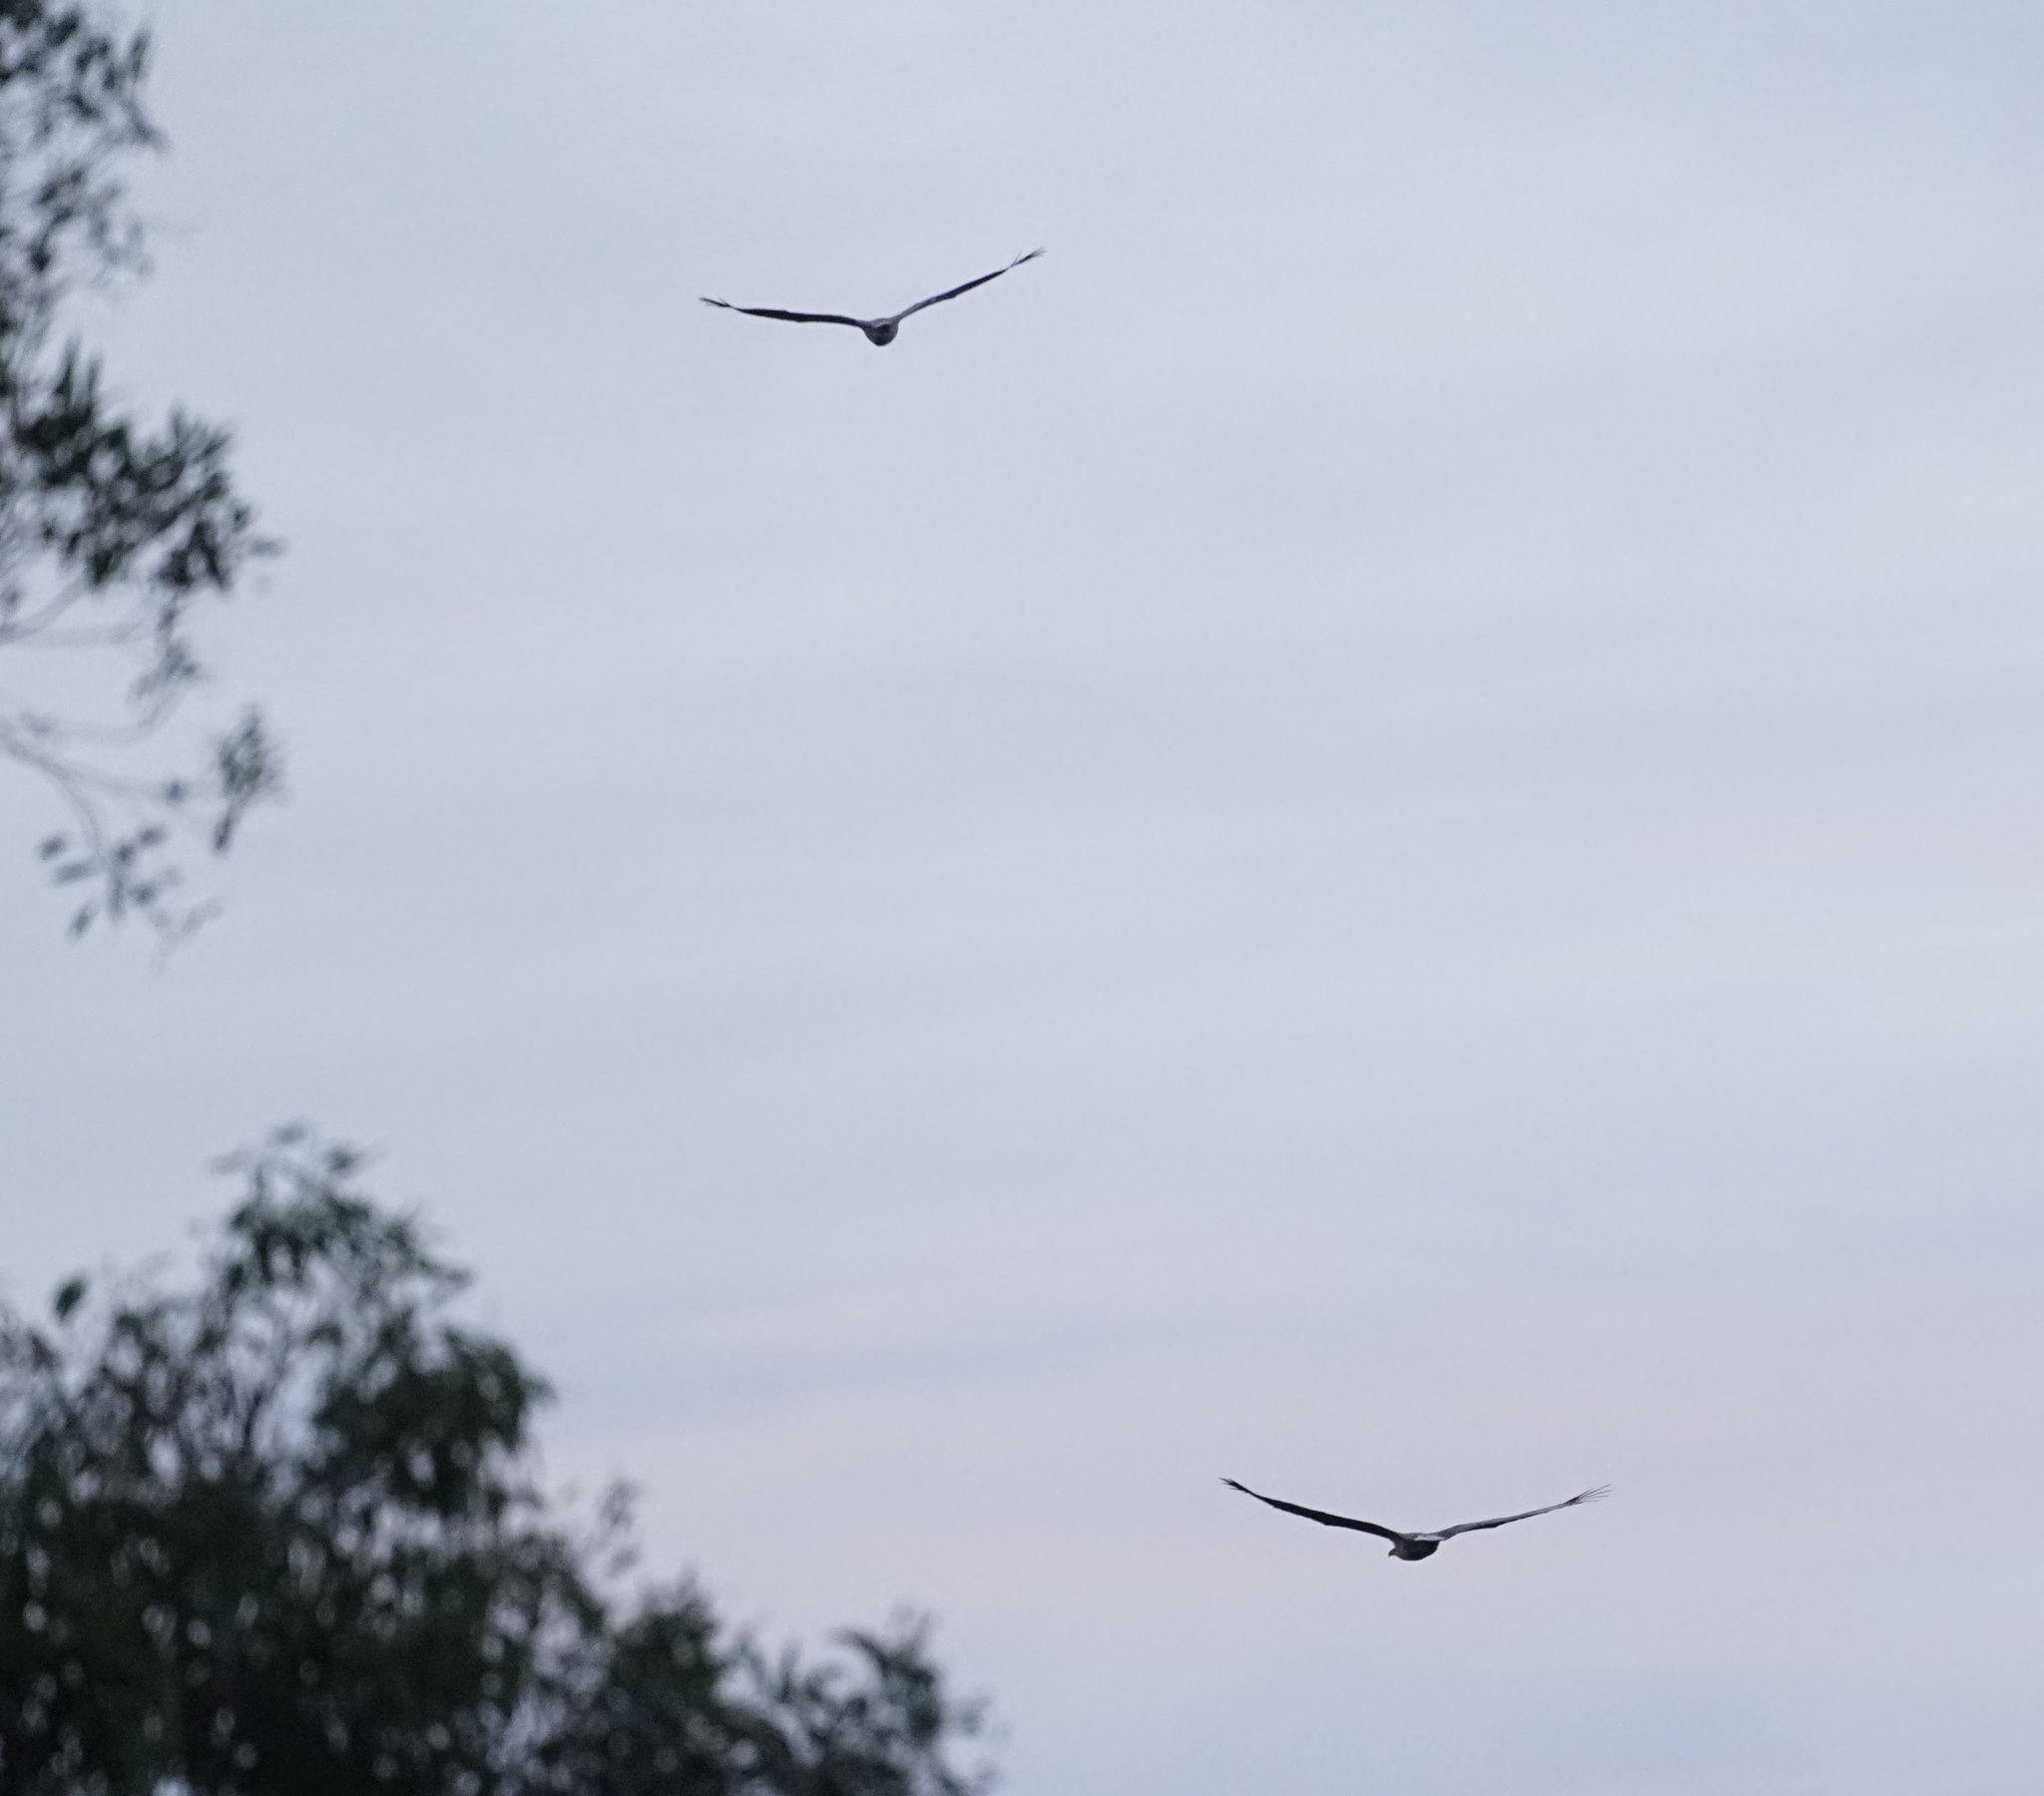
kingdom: Animalia
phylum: Chordata
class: Aves
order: Accipitriformes
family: Accipitridae
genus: Haliaeetus
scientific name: Haliaeetus leucogaster
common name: White-bellied sea eagle
